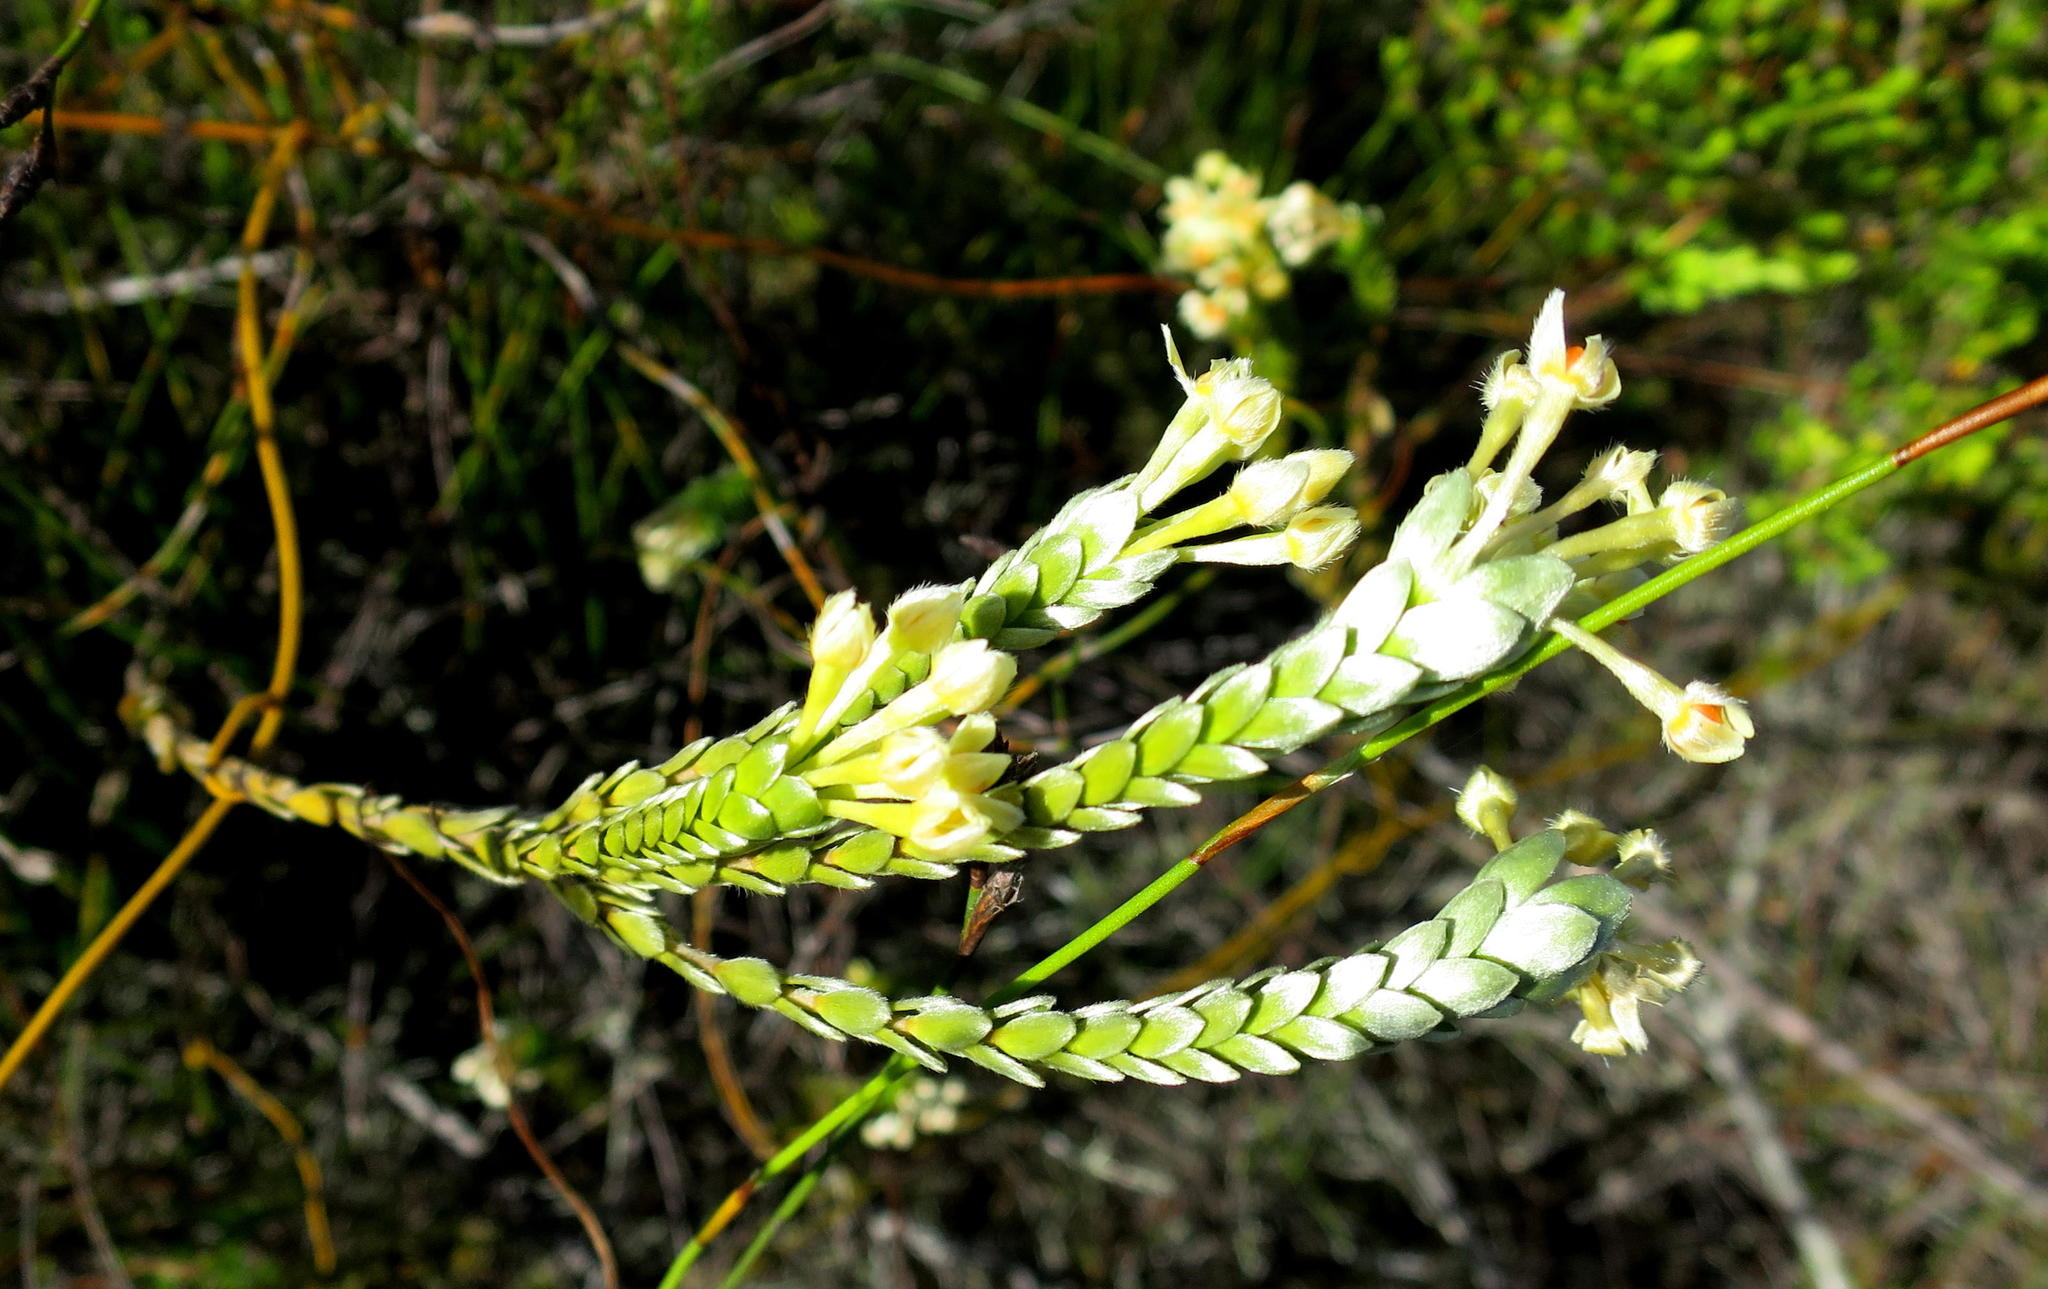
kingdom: Plantae
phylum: Tracheophyta
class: Magnoliopsida
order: Malvales
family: Thymelaeaceae
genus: Gnidia
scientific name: Gnidia chrysophylla
